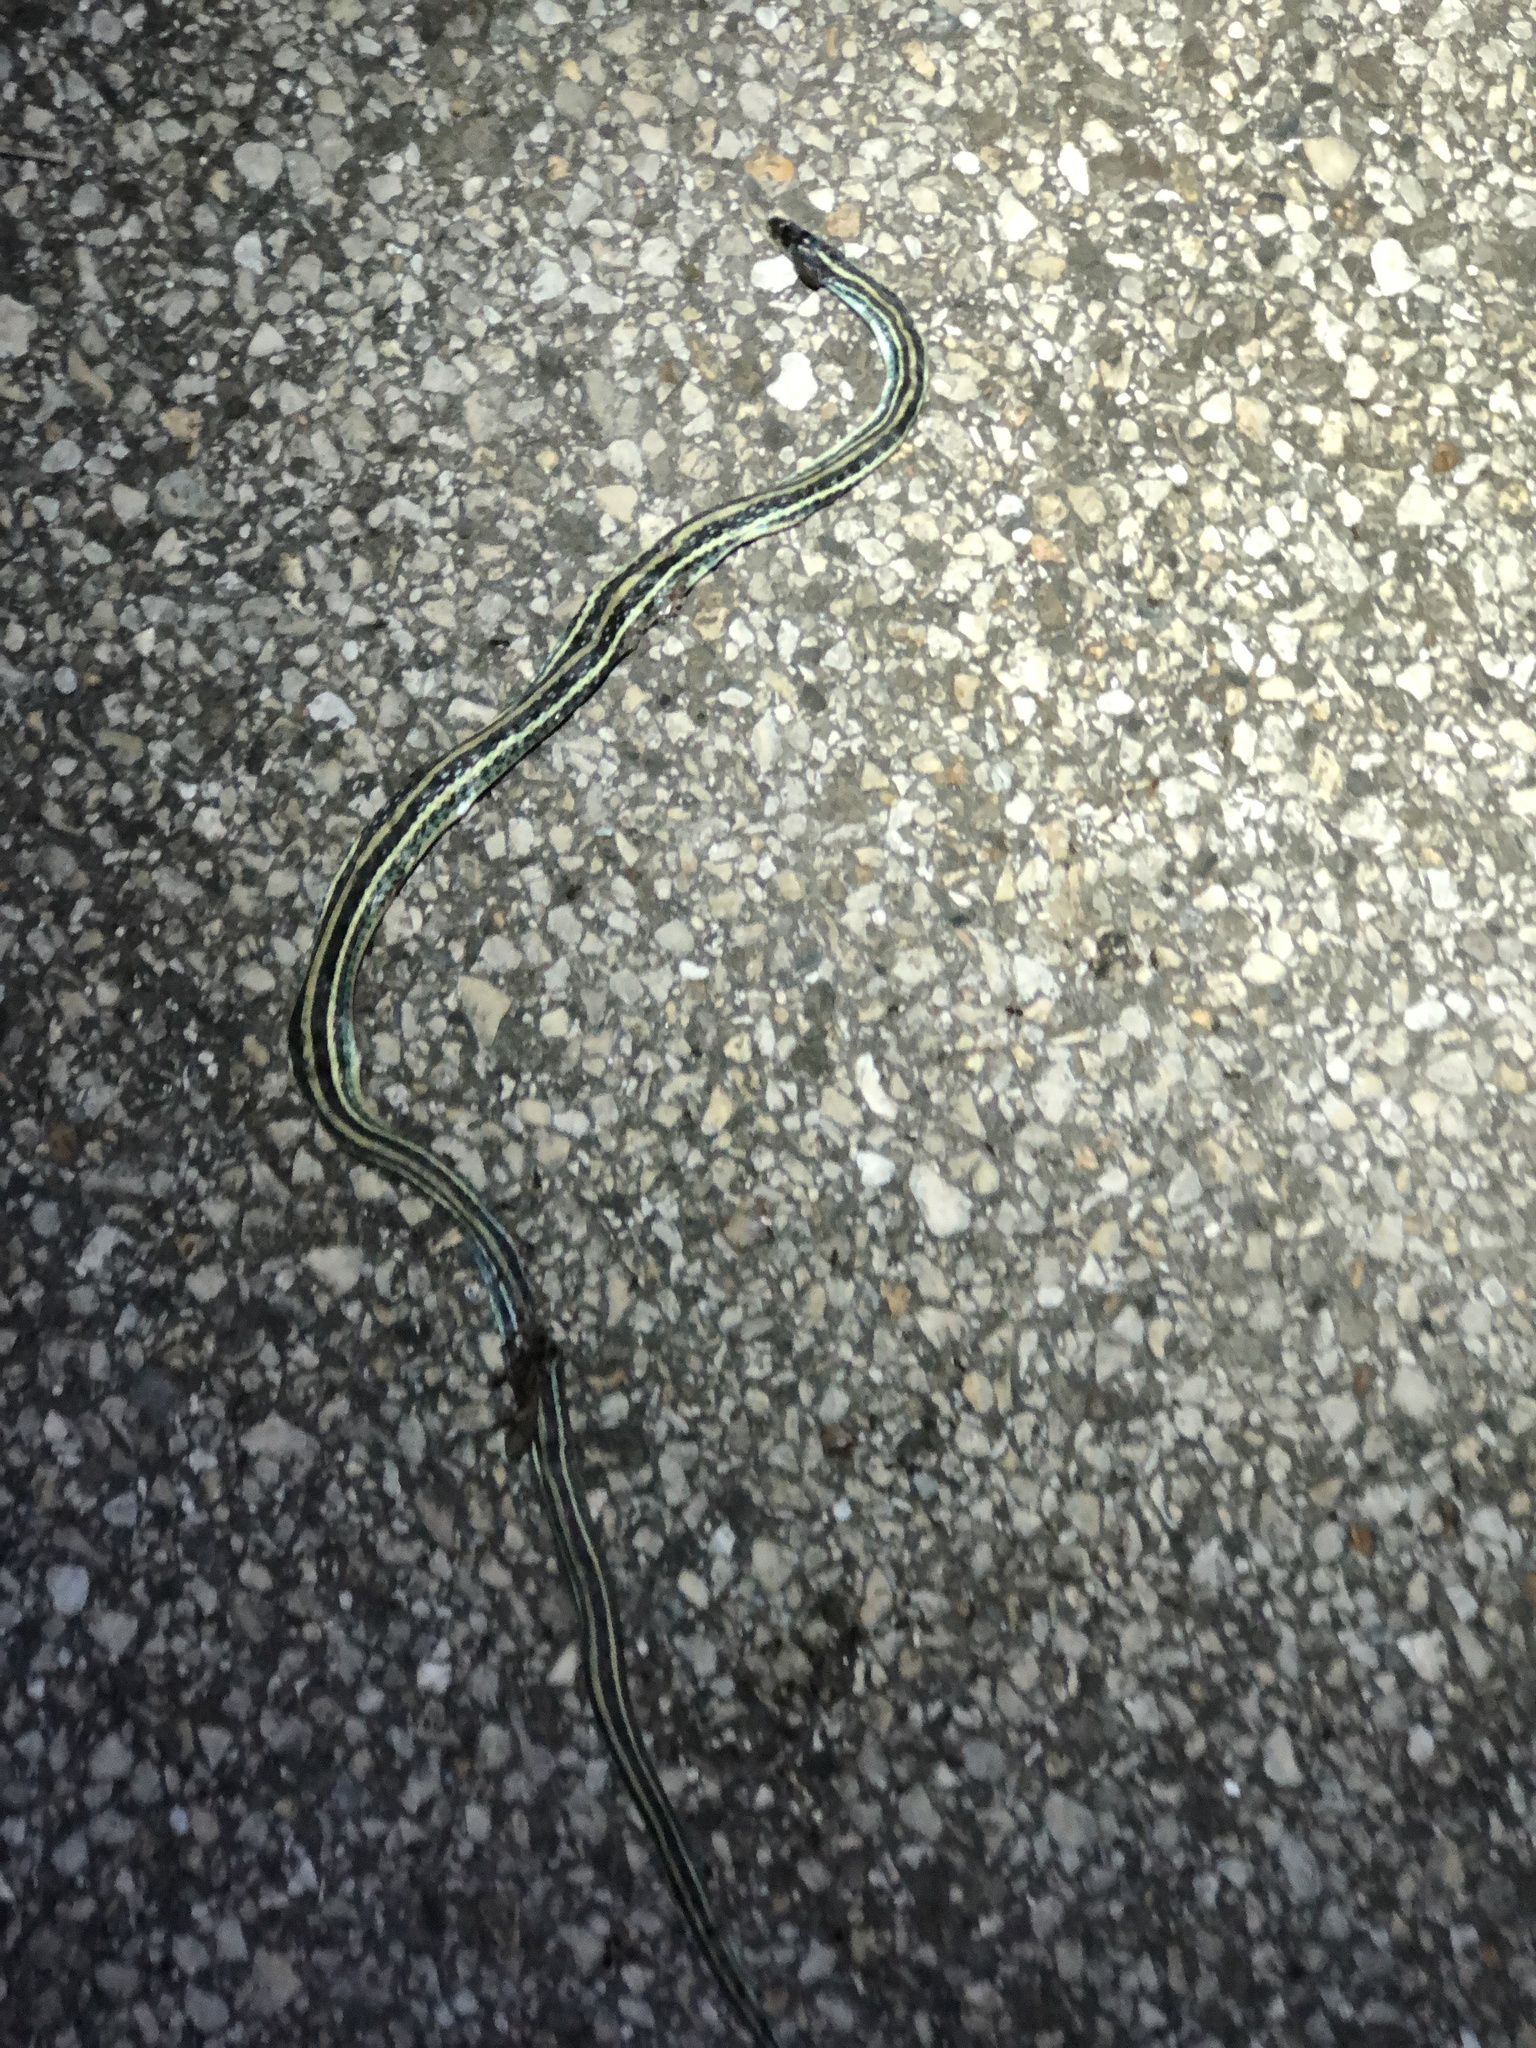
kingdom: Animalia
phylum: Chordata
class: Squamata
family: Colubridae
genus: Thamnophis
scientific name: Thamnophis proximus
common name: Western ribbon snake
